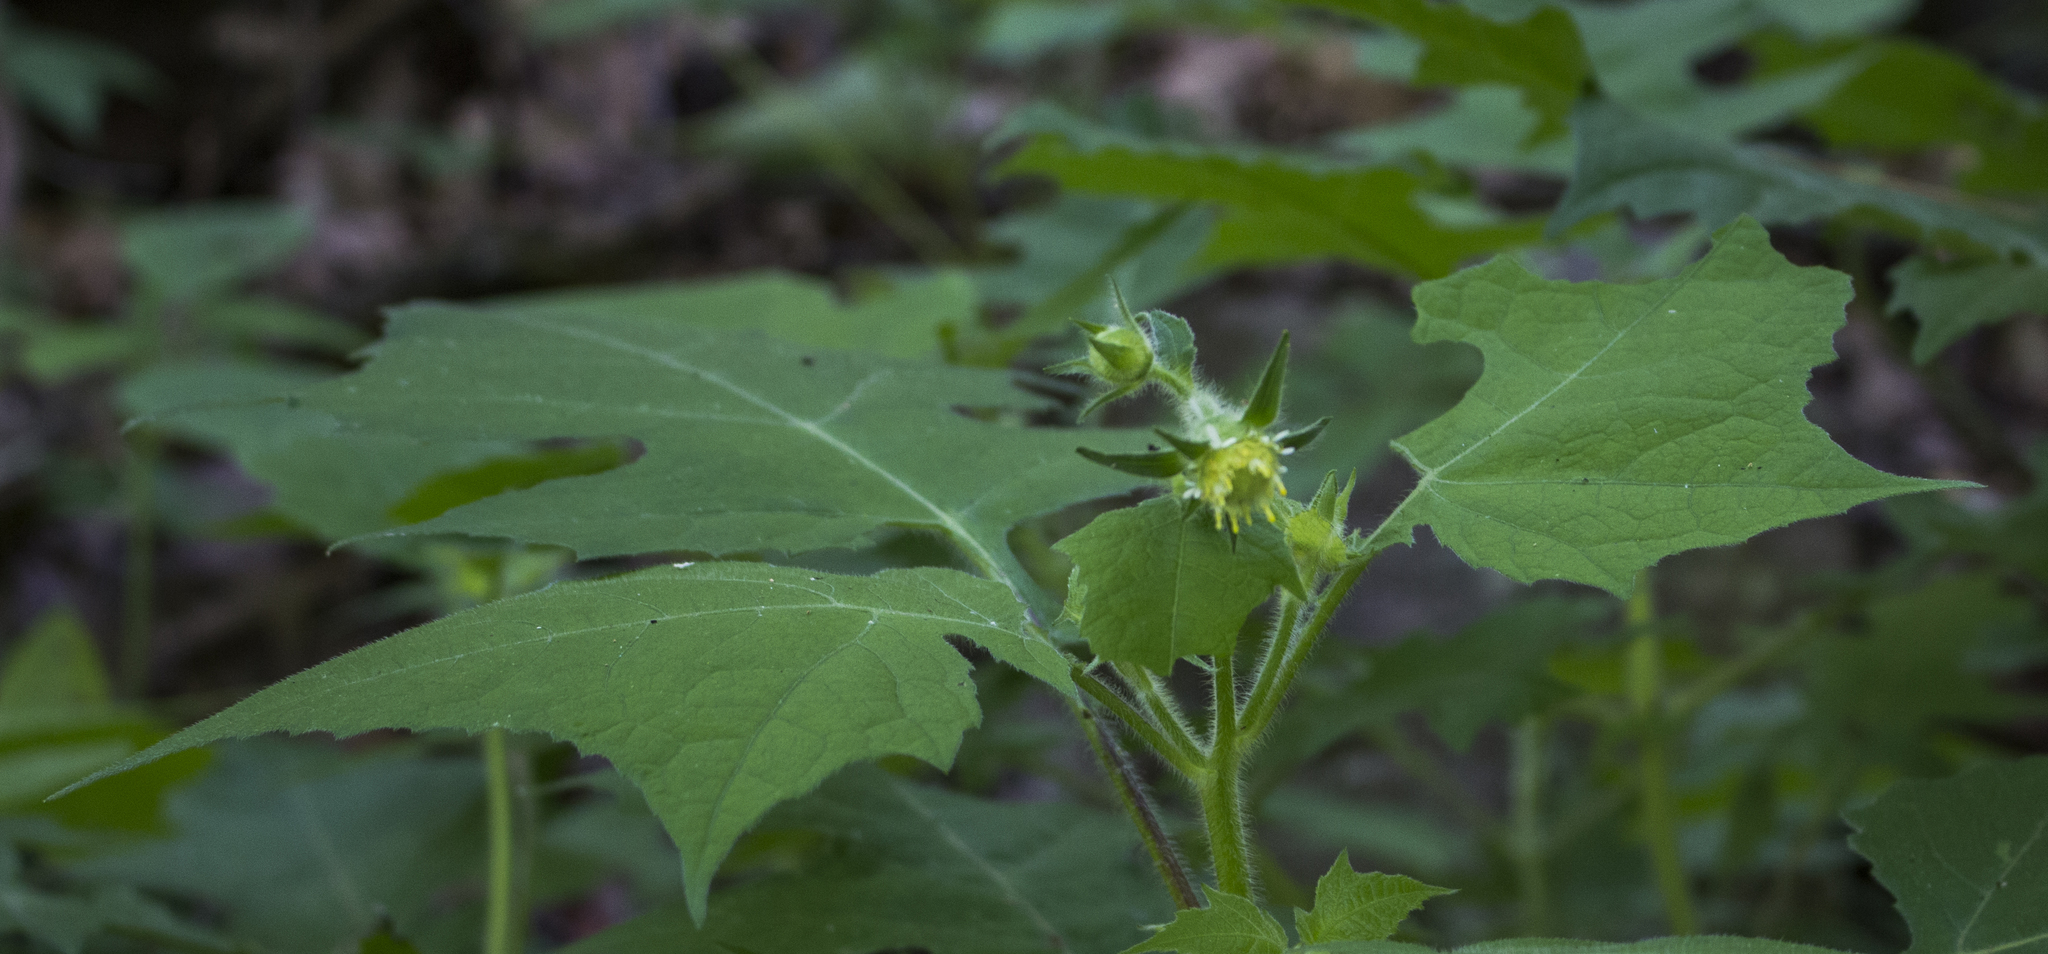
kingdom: Plantae
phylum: Tracheophyta
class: Magnoliopsida
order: Asterales
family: Asteraceae
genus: Polymnia
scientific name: Polymnia canadensis
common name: Pale-flowered leafcup
